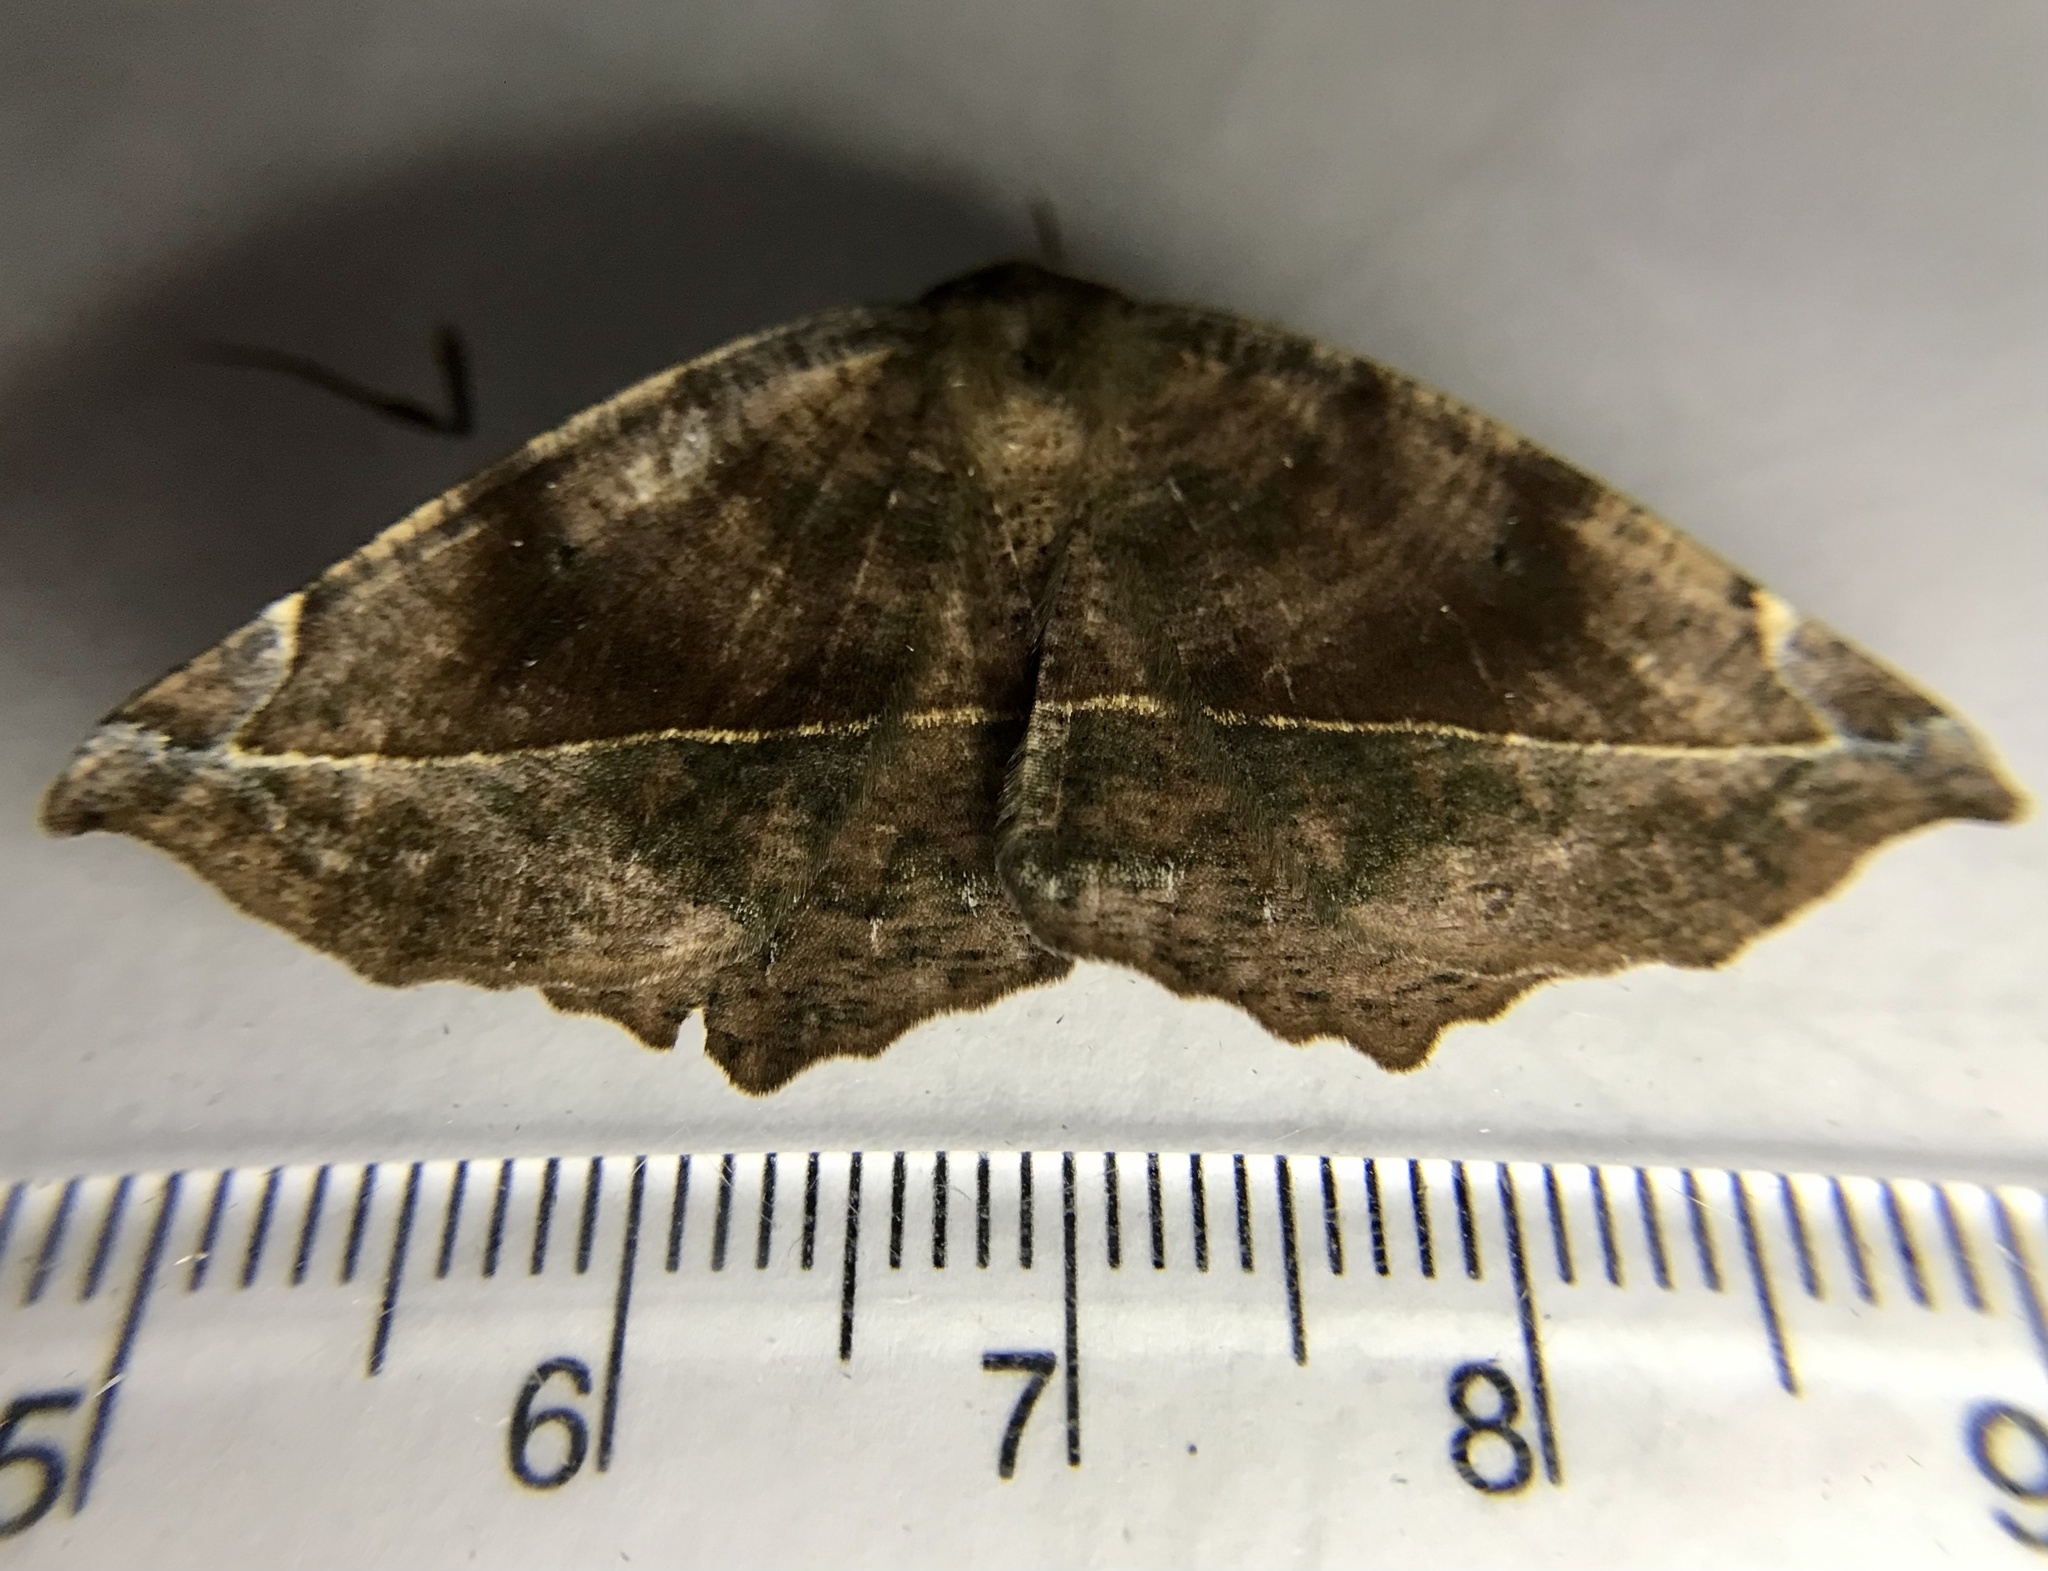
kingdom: Animalia
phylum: Arthropoda
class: Insecta
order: Lepidoptera
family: Geometridae
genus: Eutrapela
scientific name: Eutrapela clemataria
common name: Curved-toothed geometer
